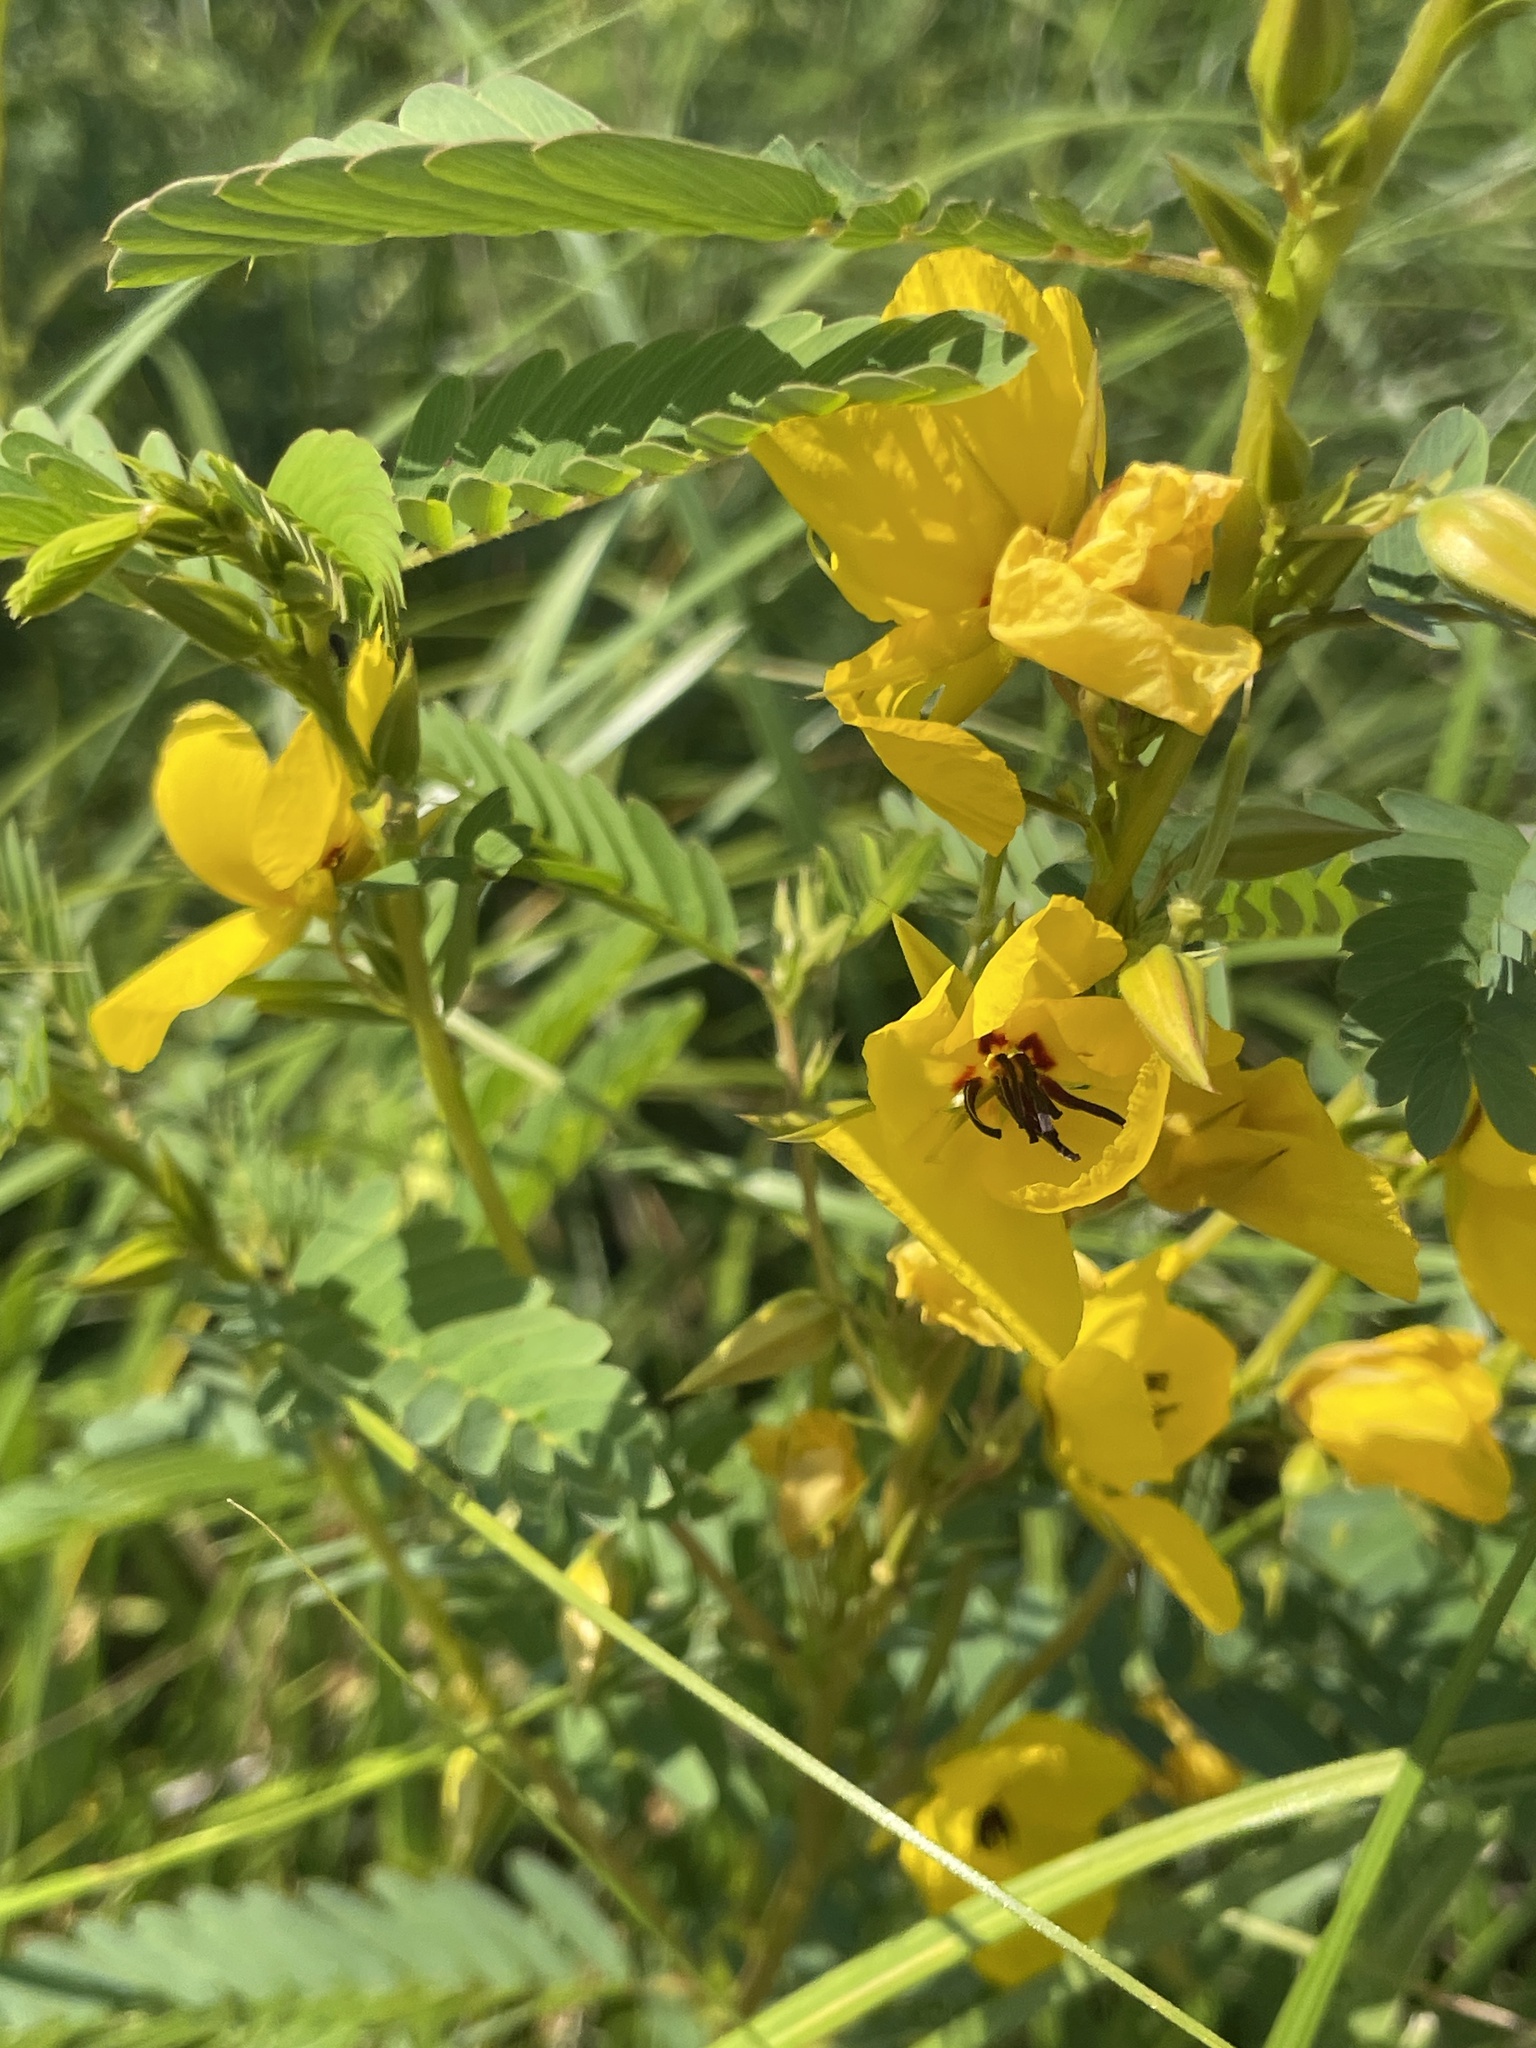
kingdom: Plantae
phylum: Tracheophyta
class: Magnoliopsida
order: Fabales
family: Fabaceae
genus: Chamaecrista
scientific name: Chamaecrista fasciculata
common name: Golden cassia
